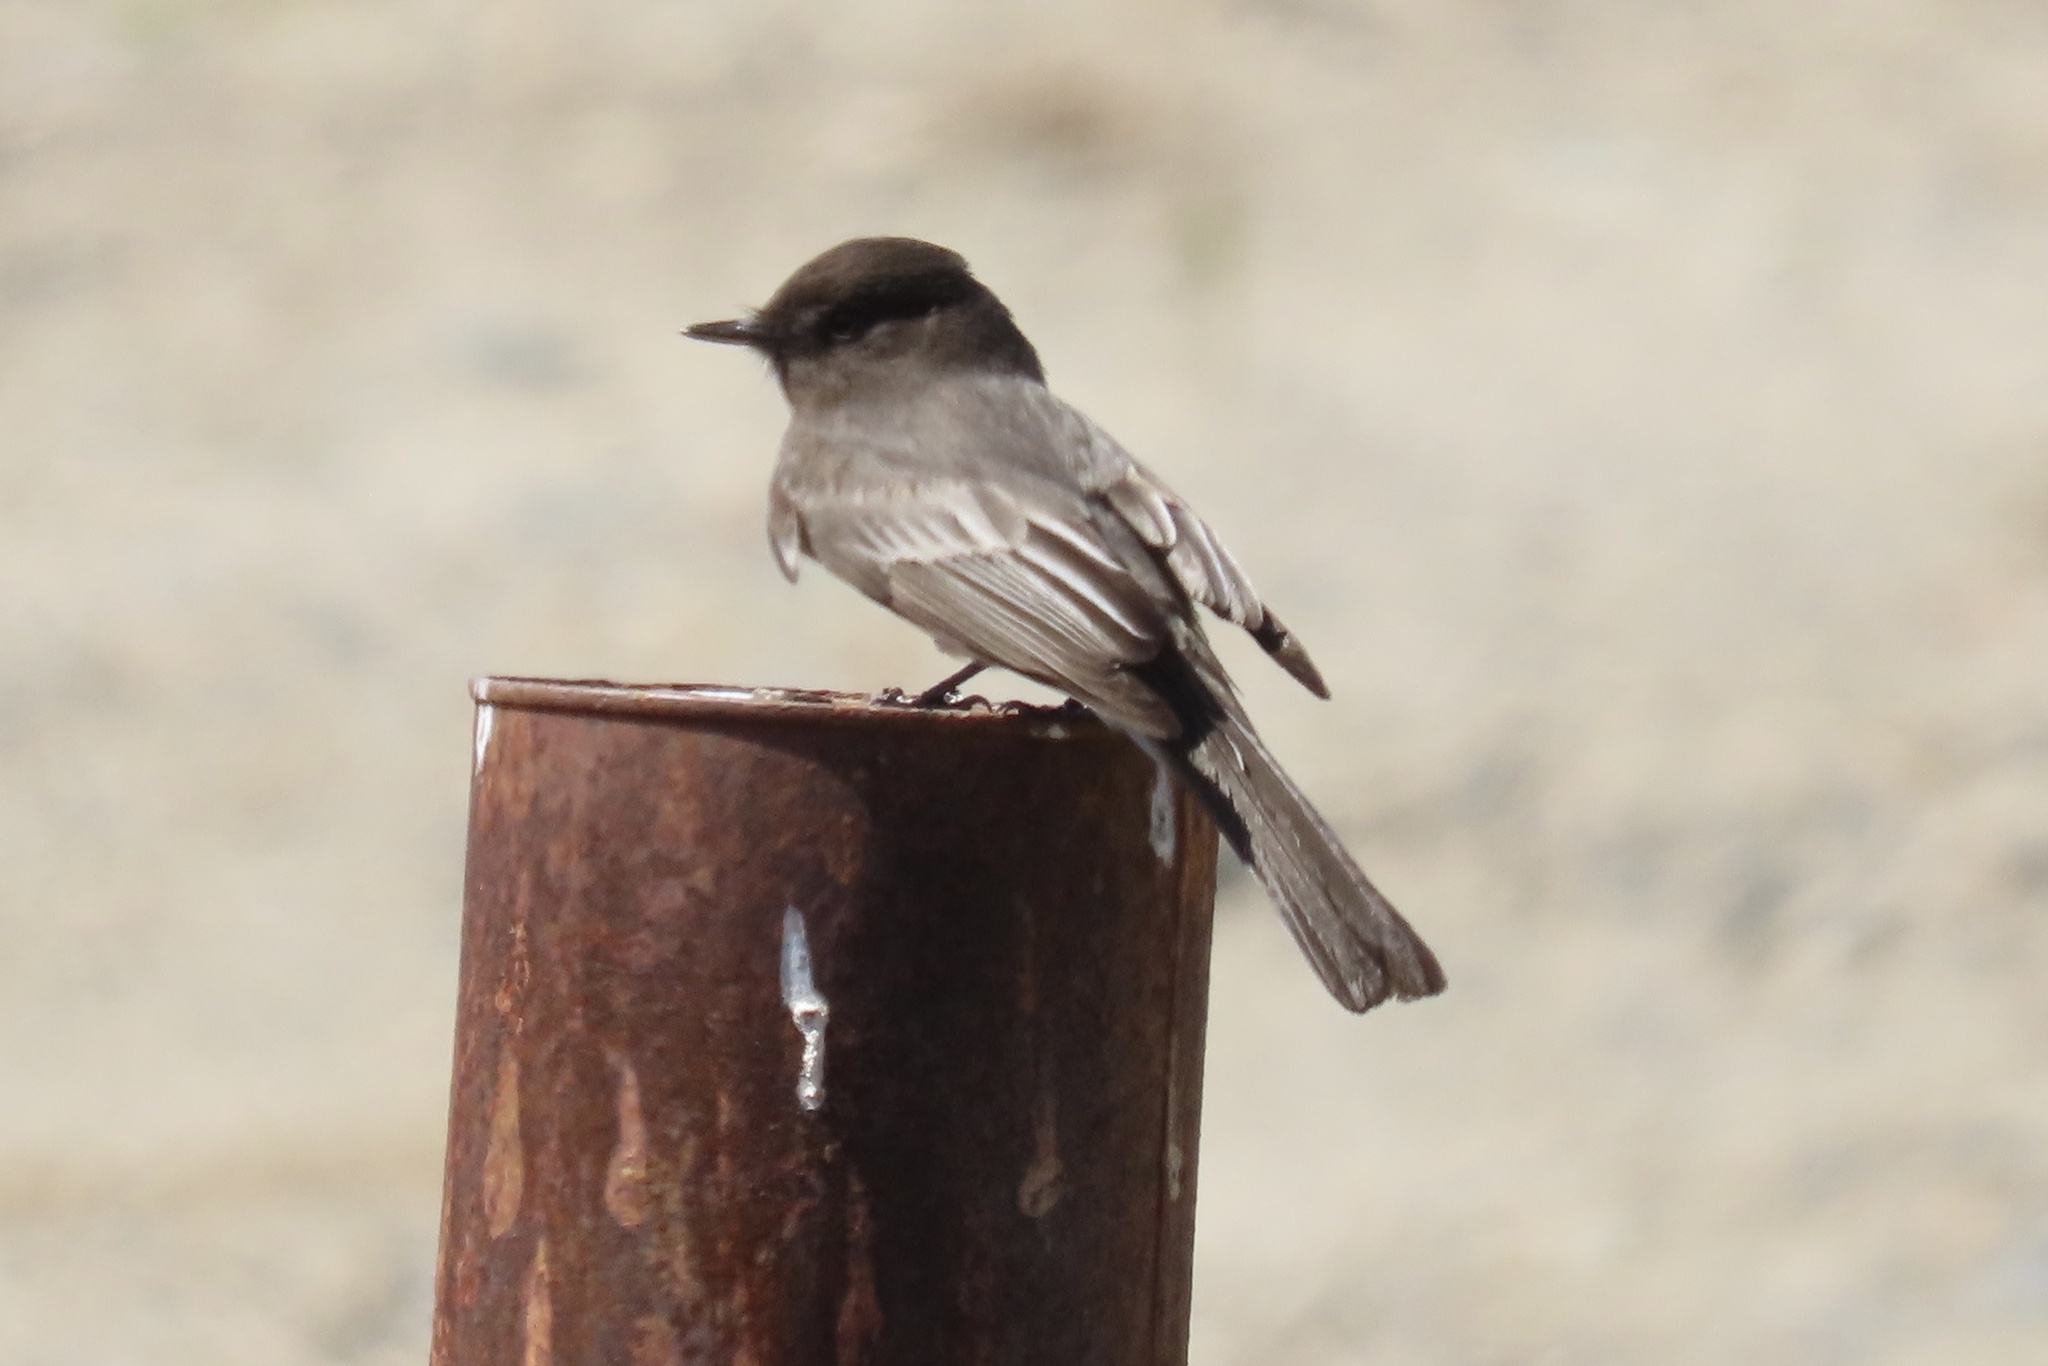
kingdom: Animalia
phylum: Chordata
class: Aves
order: Passeriformes
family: Tyrannidae
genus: Sayornis
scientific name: Sayornis nigricans
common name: Black phoebe
